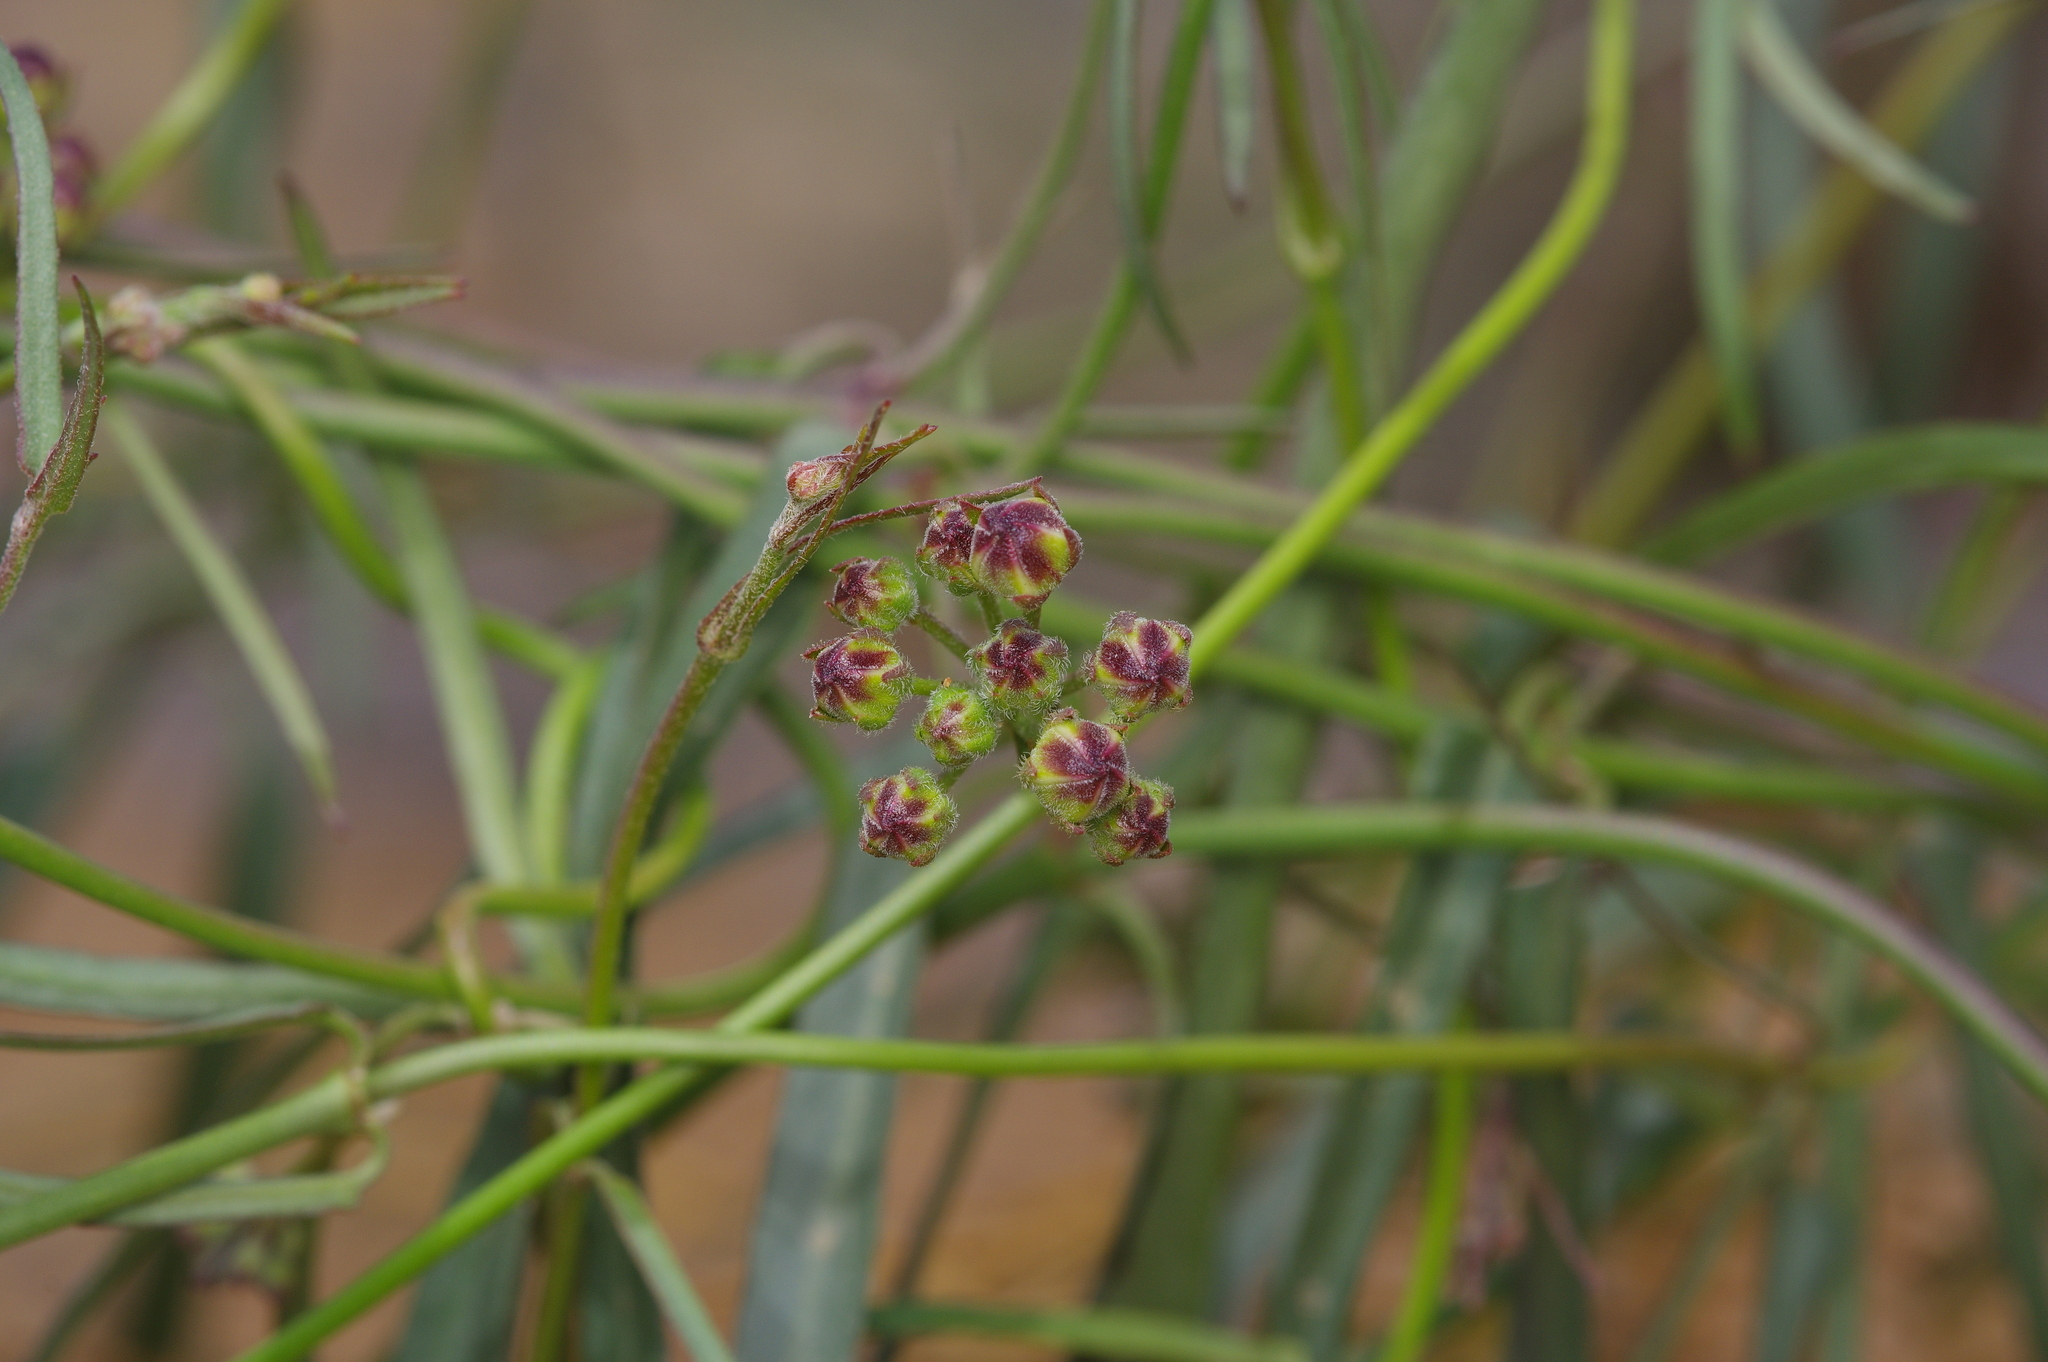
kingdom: Plantae
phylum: Tracheophyta
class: Magnoliopsida
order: Gentianales
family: Apocynaceae
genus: Funastrum
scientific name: Funastrum heterophyllum
